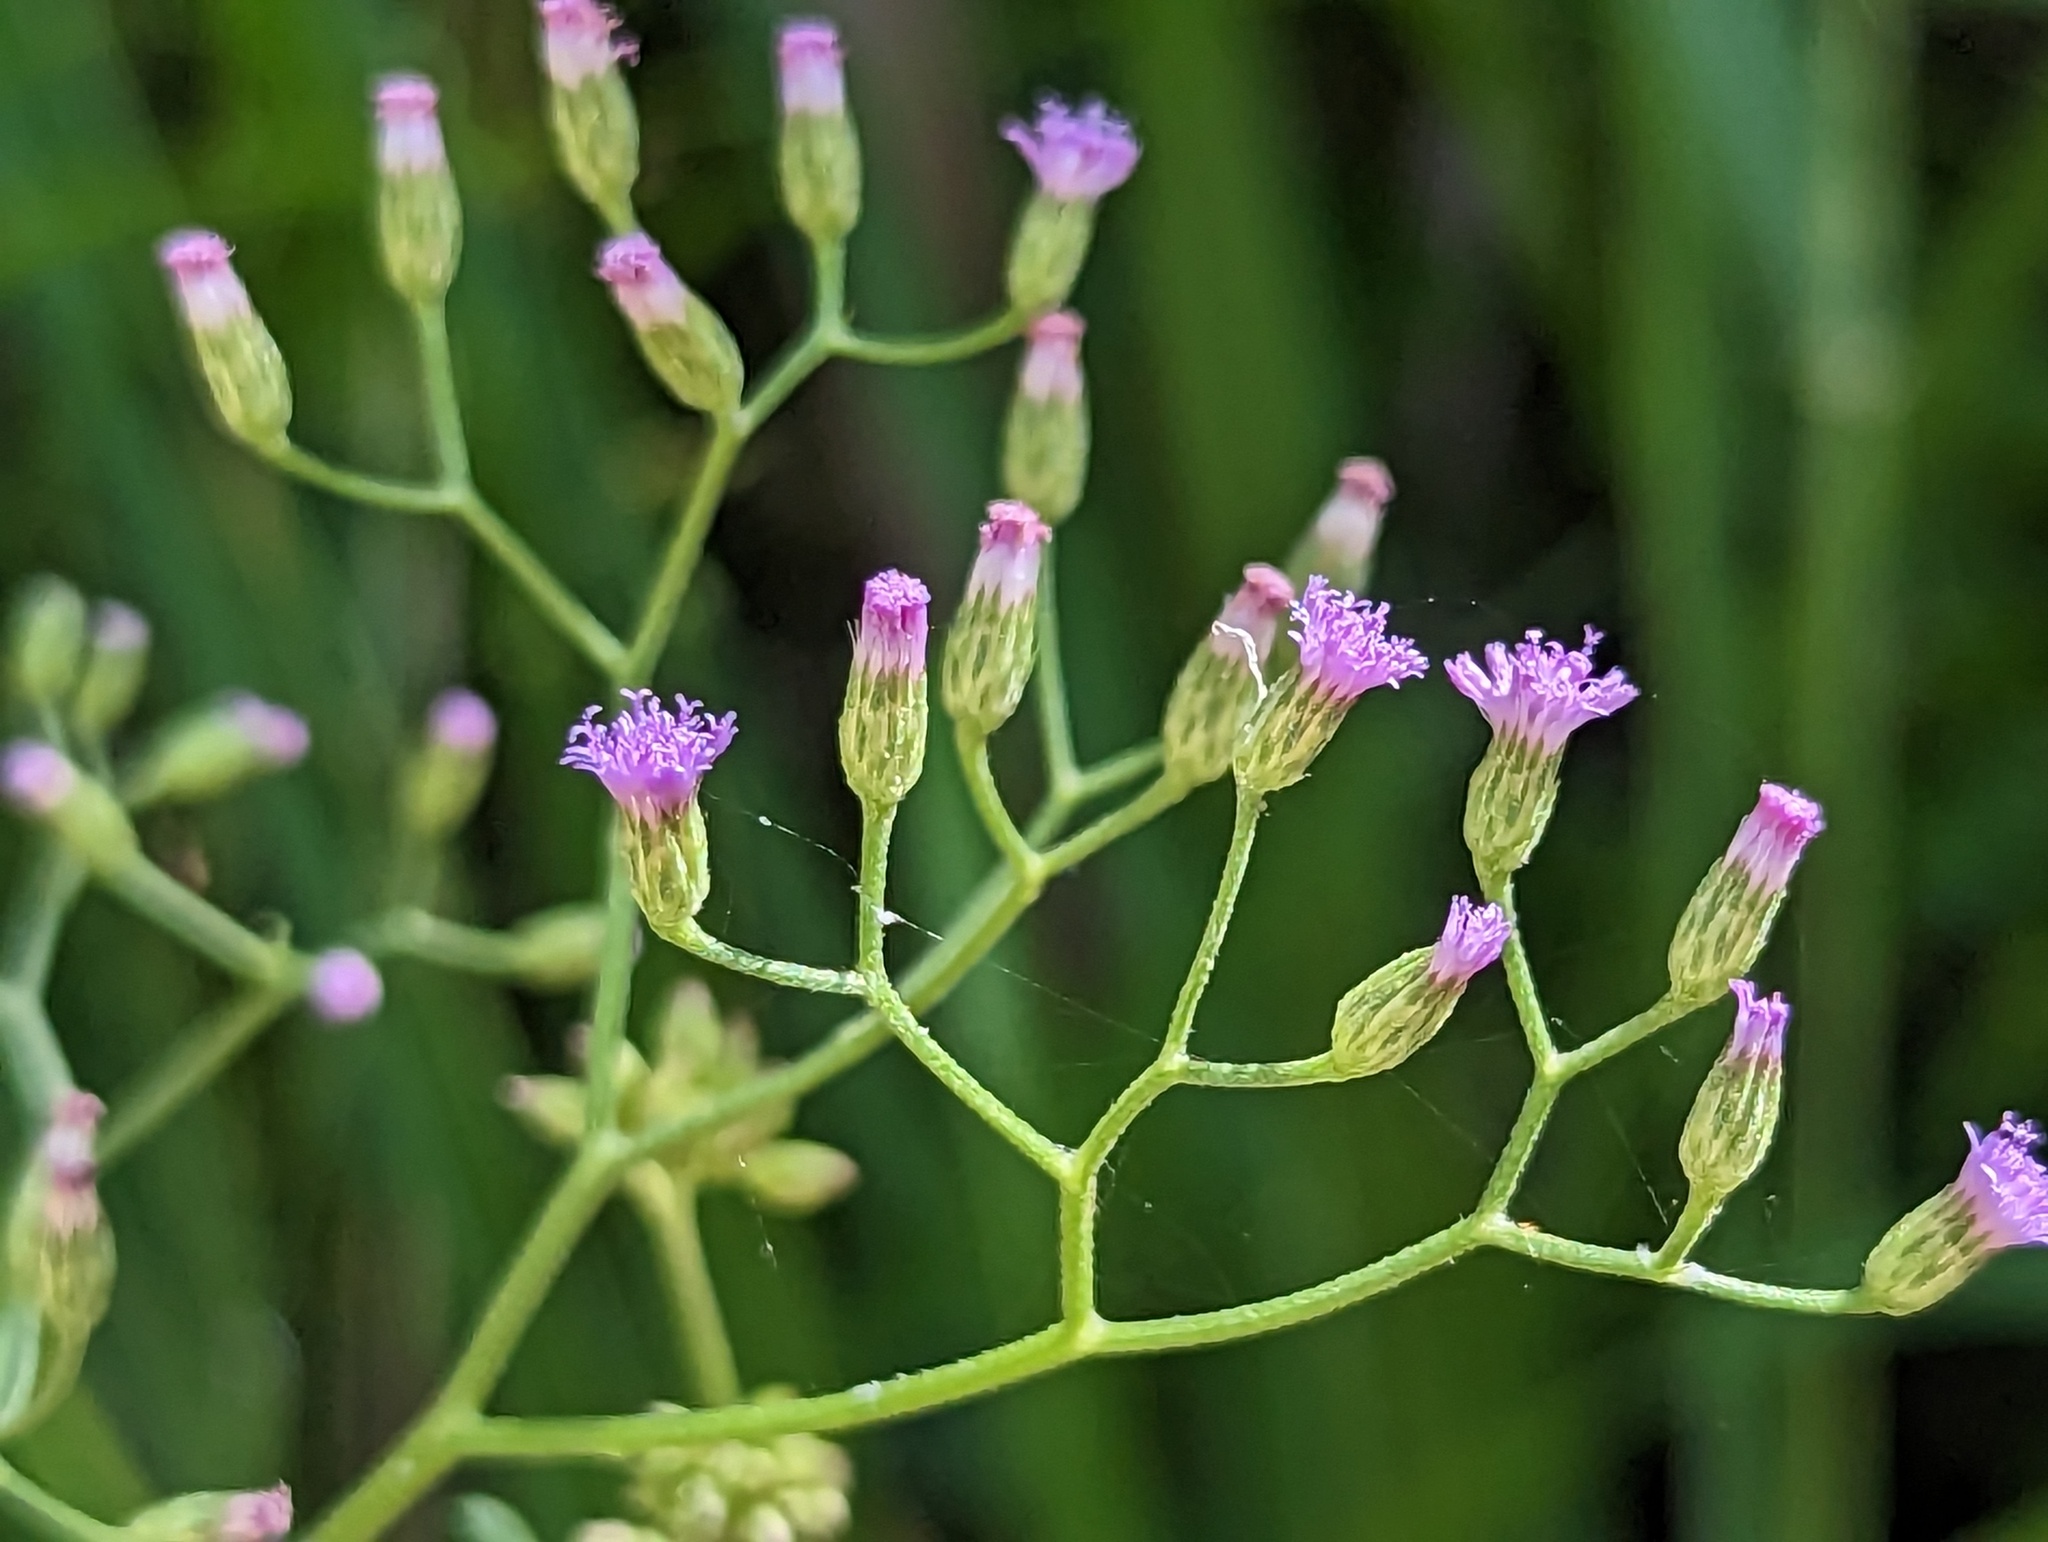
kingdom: Plantae
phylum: Tracheophyta
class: Magnoliopsida
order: Asterales
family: Asteraceae
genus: Cyanthillium
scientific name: Cyanthillium cinereum
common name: Little ironweed
